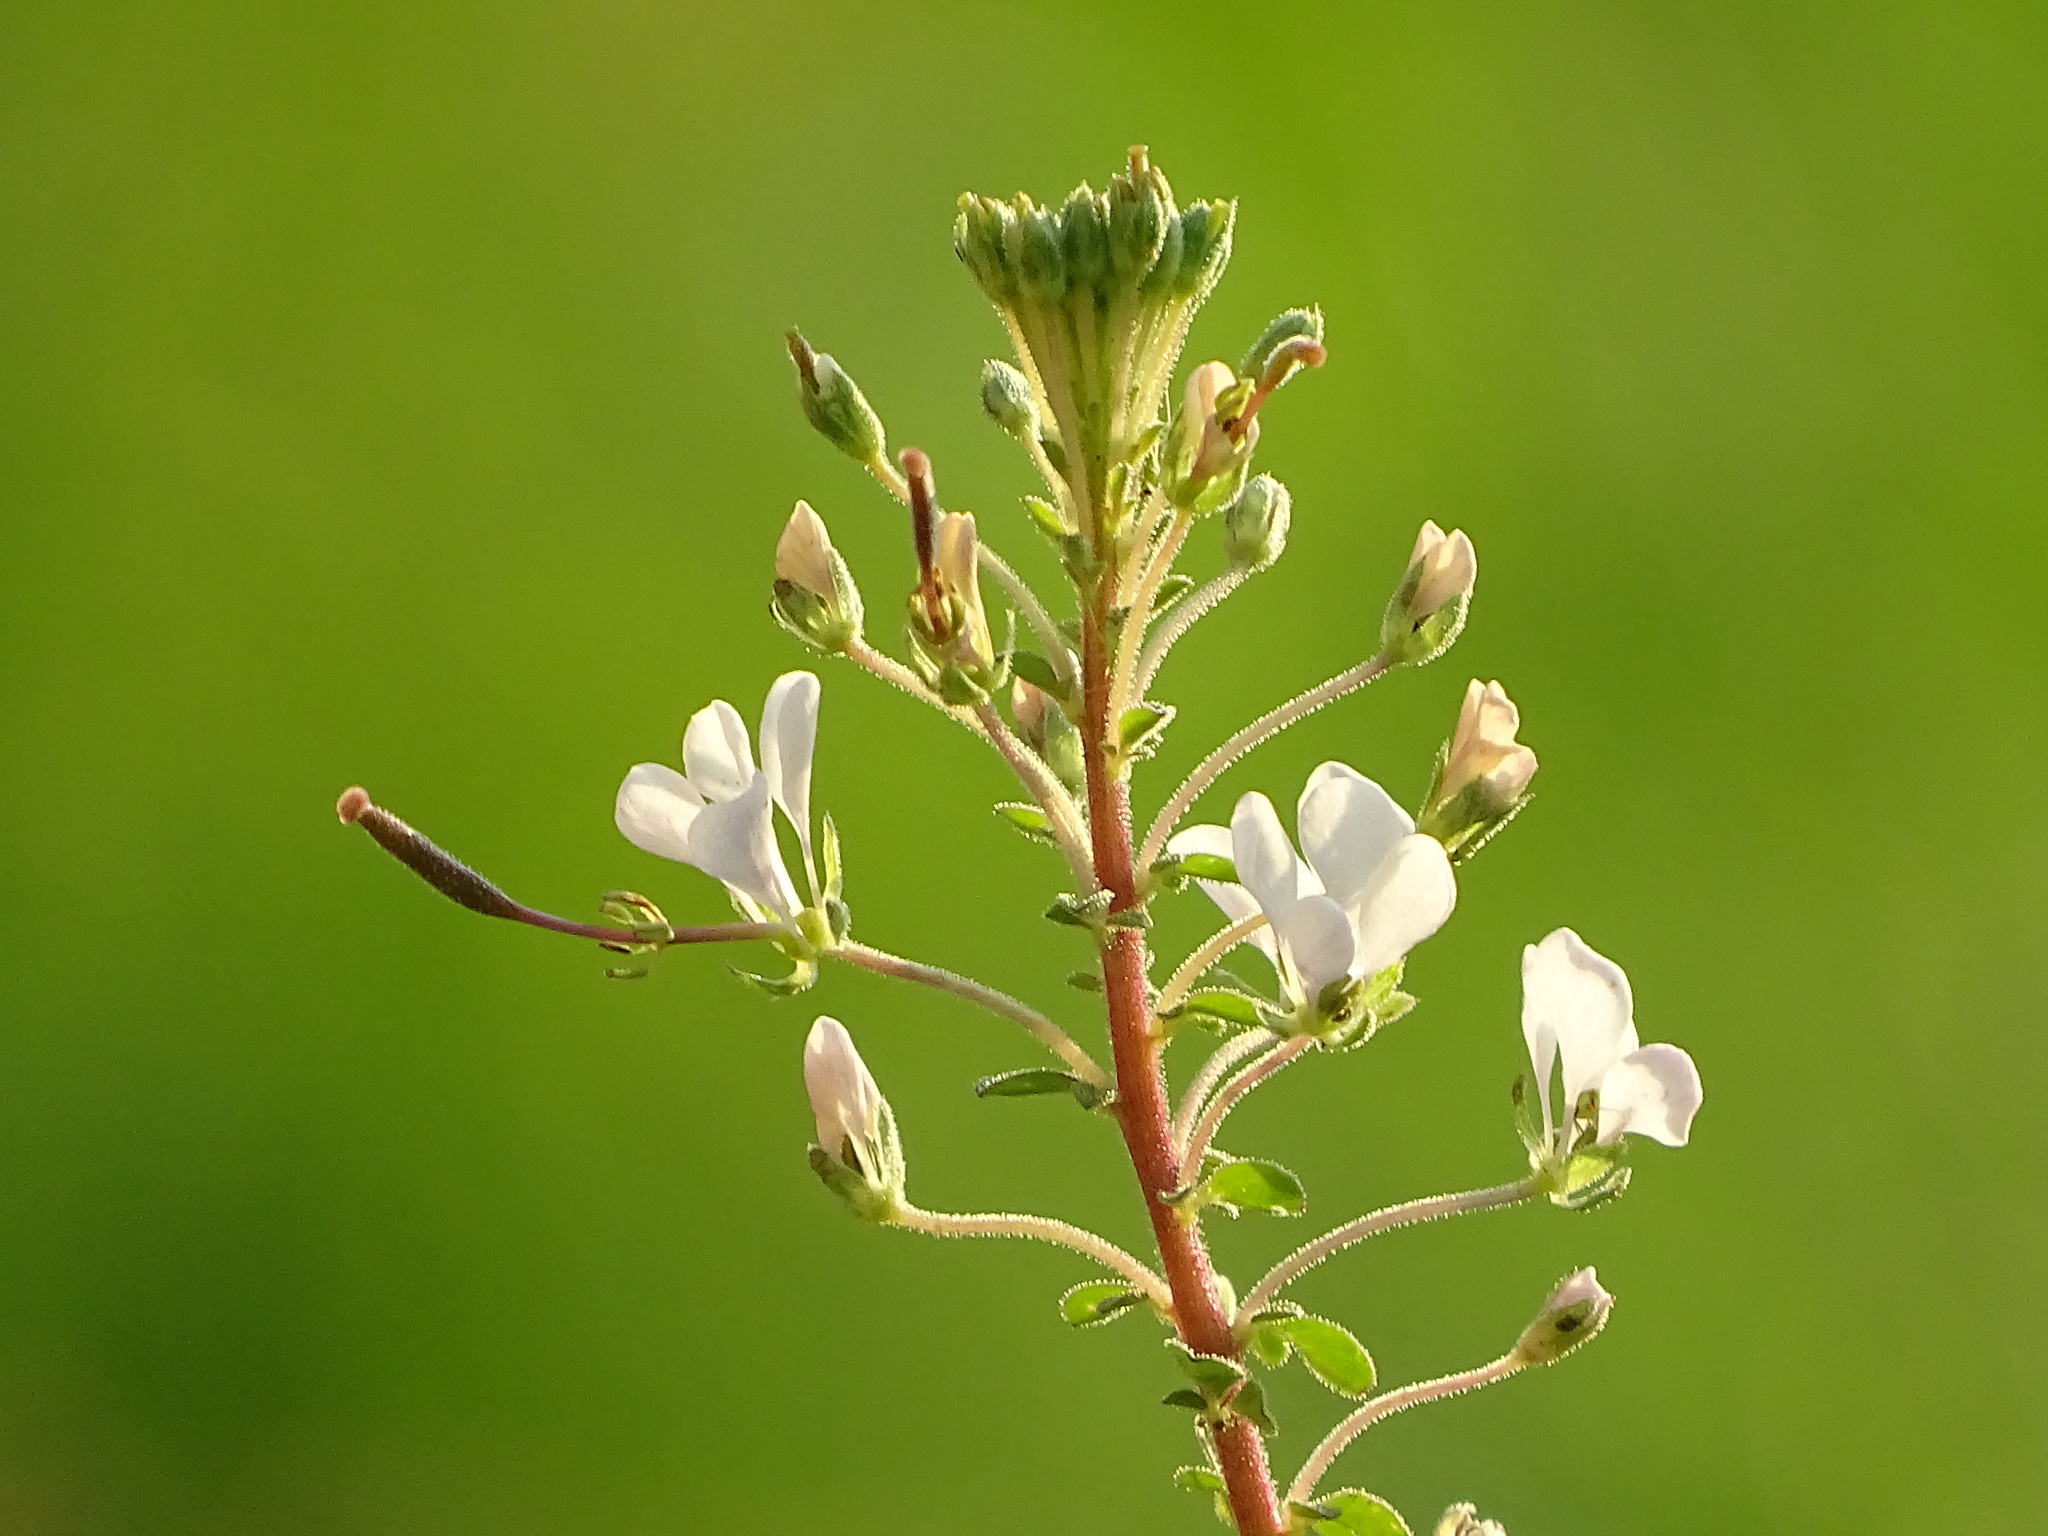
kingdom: Plantae
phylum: Tracheophyta
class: Magnoliopsida
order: Brassicales
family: Cleomaceae
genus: Gynandropsis
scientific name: Gynandropsis gynandra
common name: Spiderwisp
